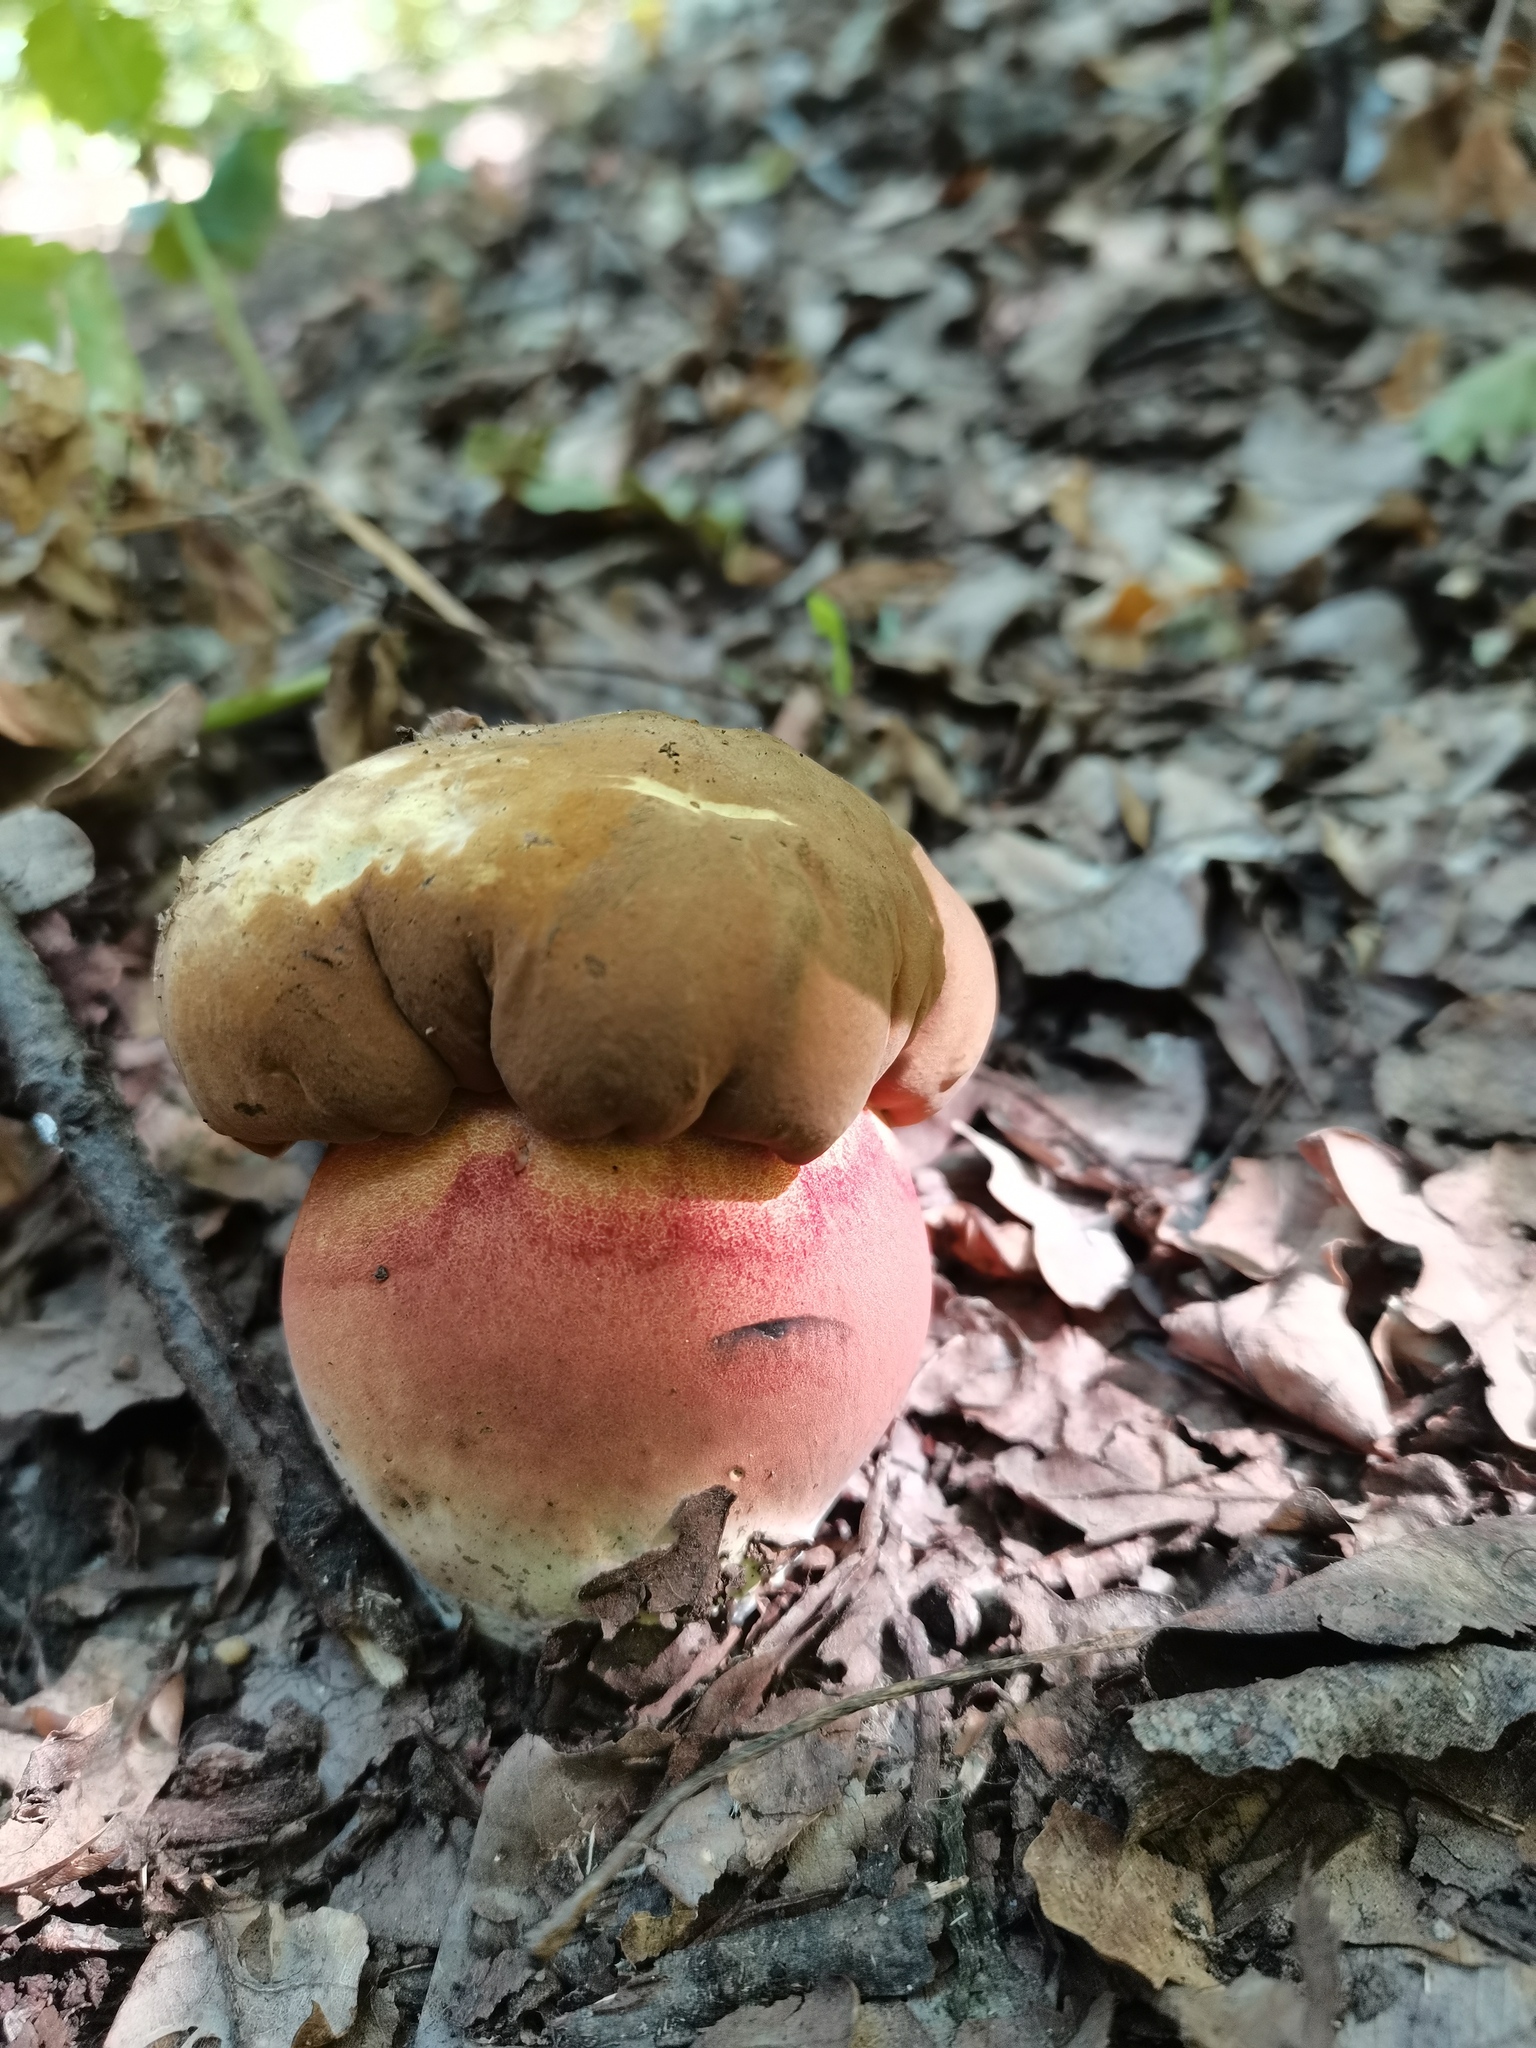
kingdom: Fungi
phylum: Basidiomycota
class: Agaricomycetes
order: Boletales
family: Boletaceae
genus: Neoboletus
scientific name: Neoboletus luridiformis
